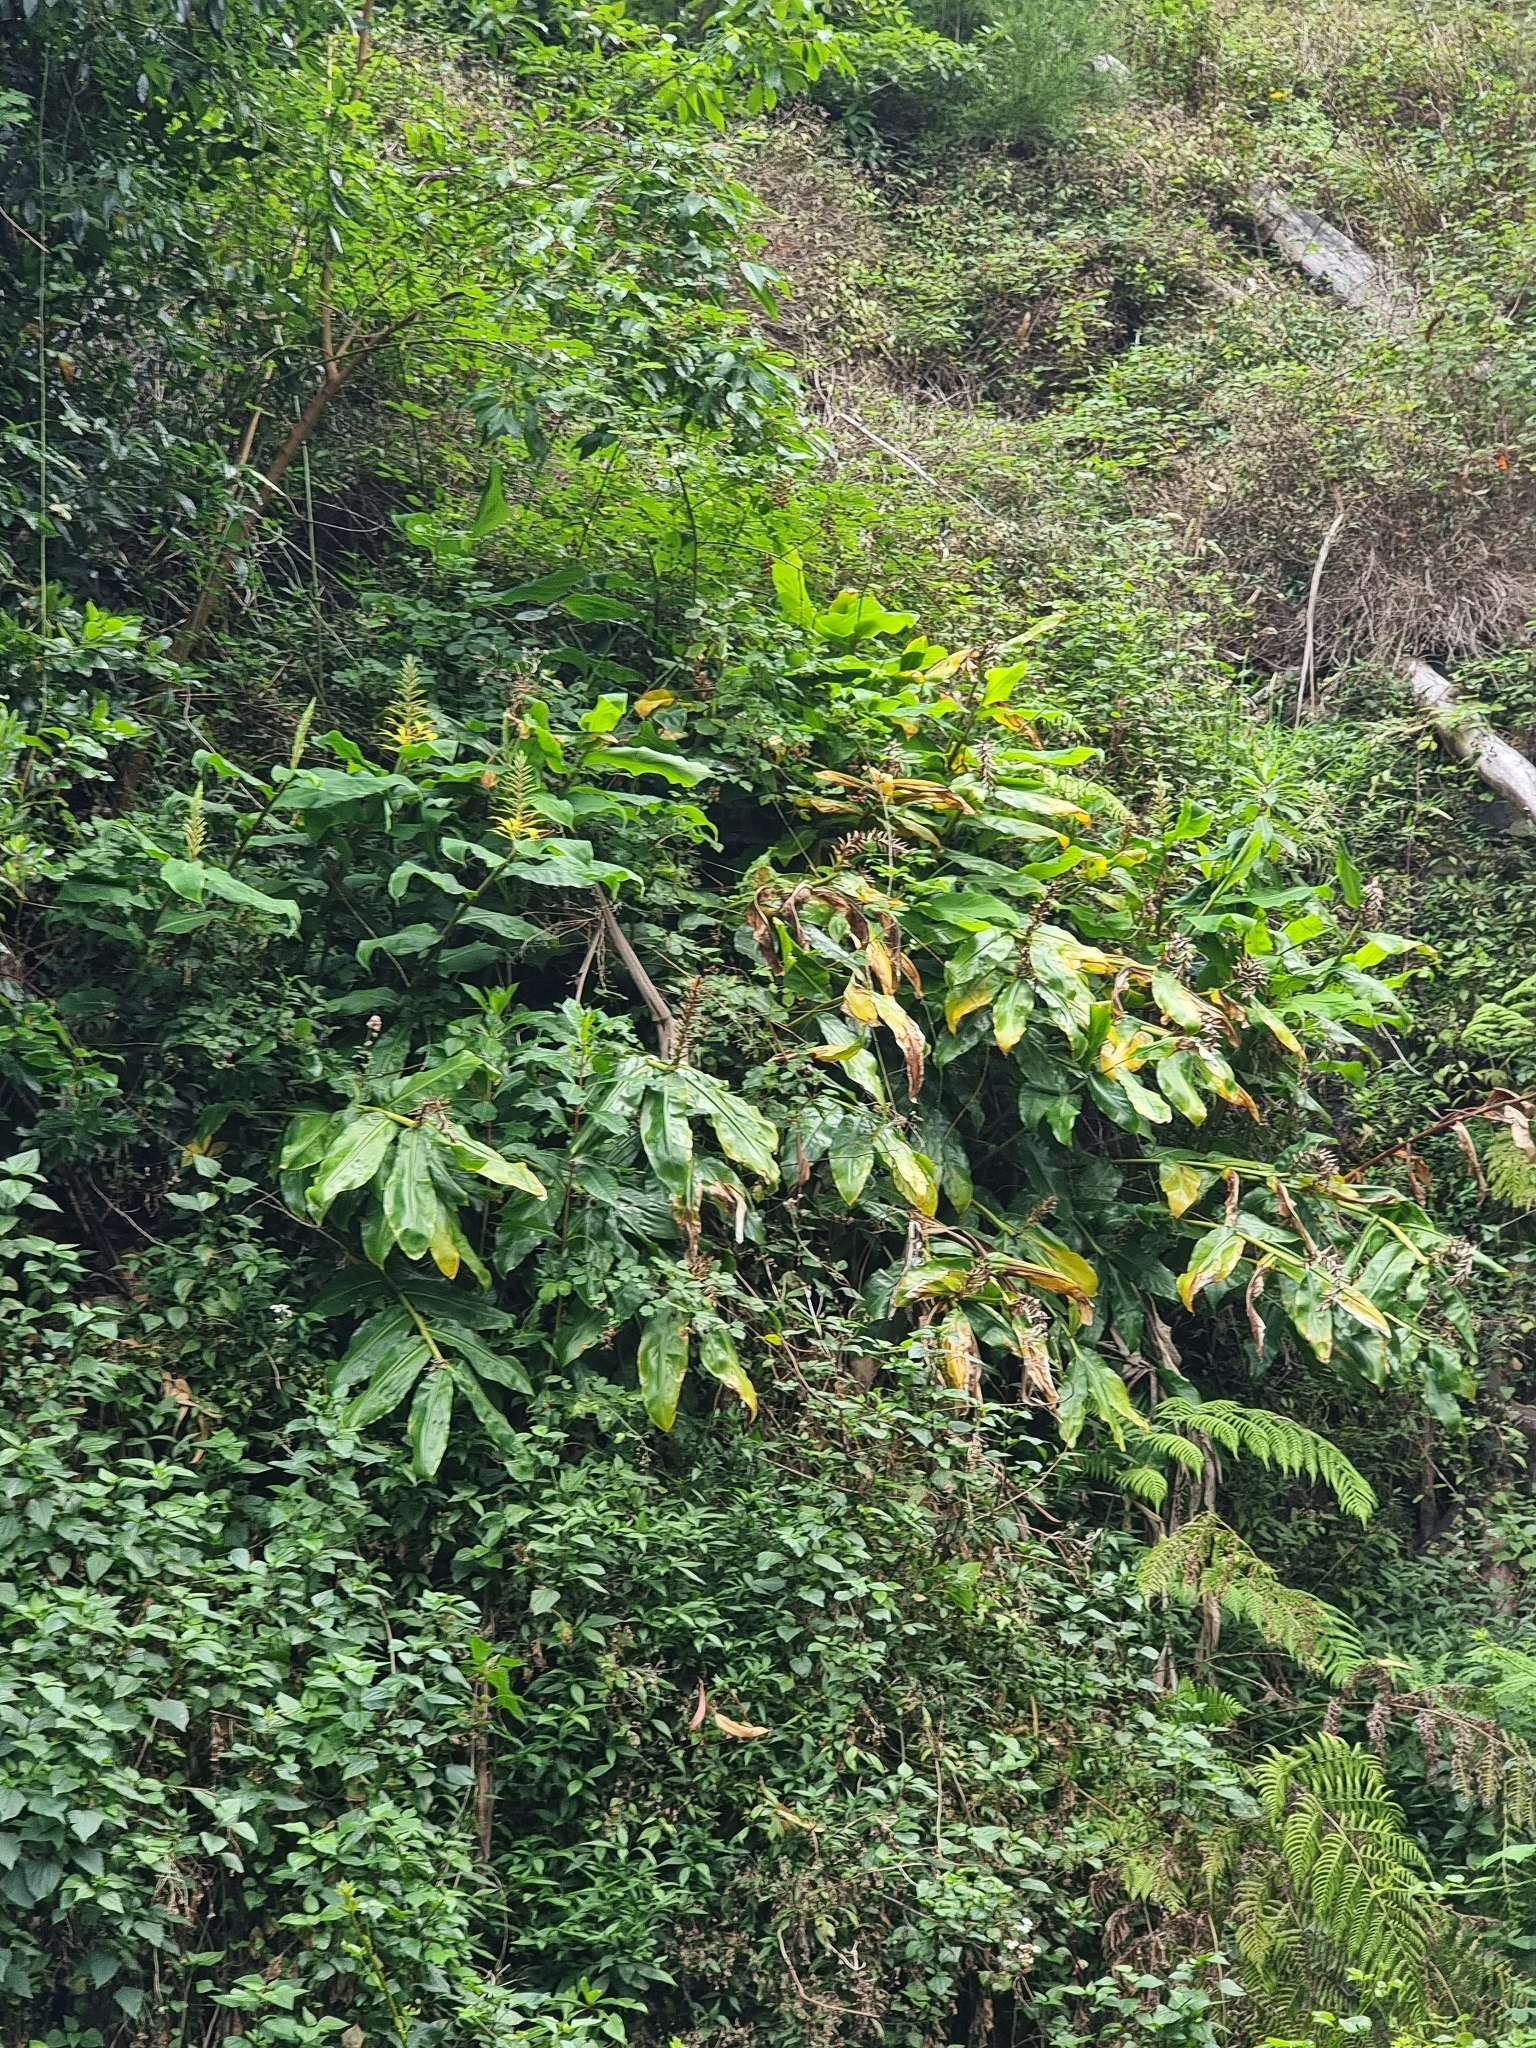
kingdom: Plantae
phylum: Tracheophyta
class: Liliopsida
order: Zingiberales
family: Zingiberaceae
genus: Hedychium
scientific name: Hedychium gardnerianum
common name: Himalayan ginger
